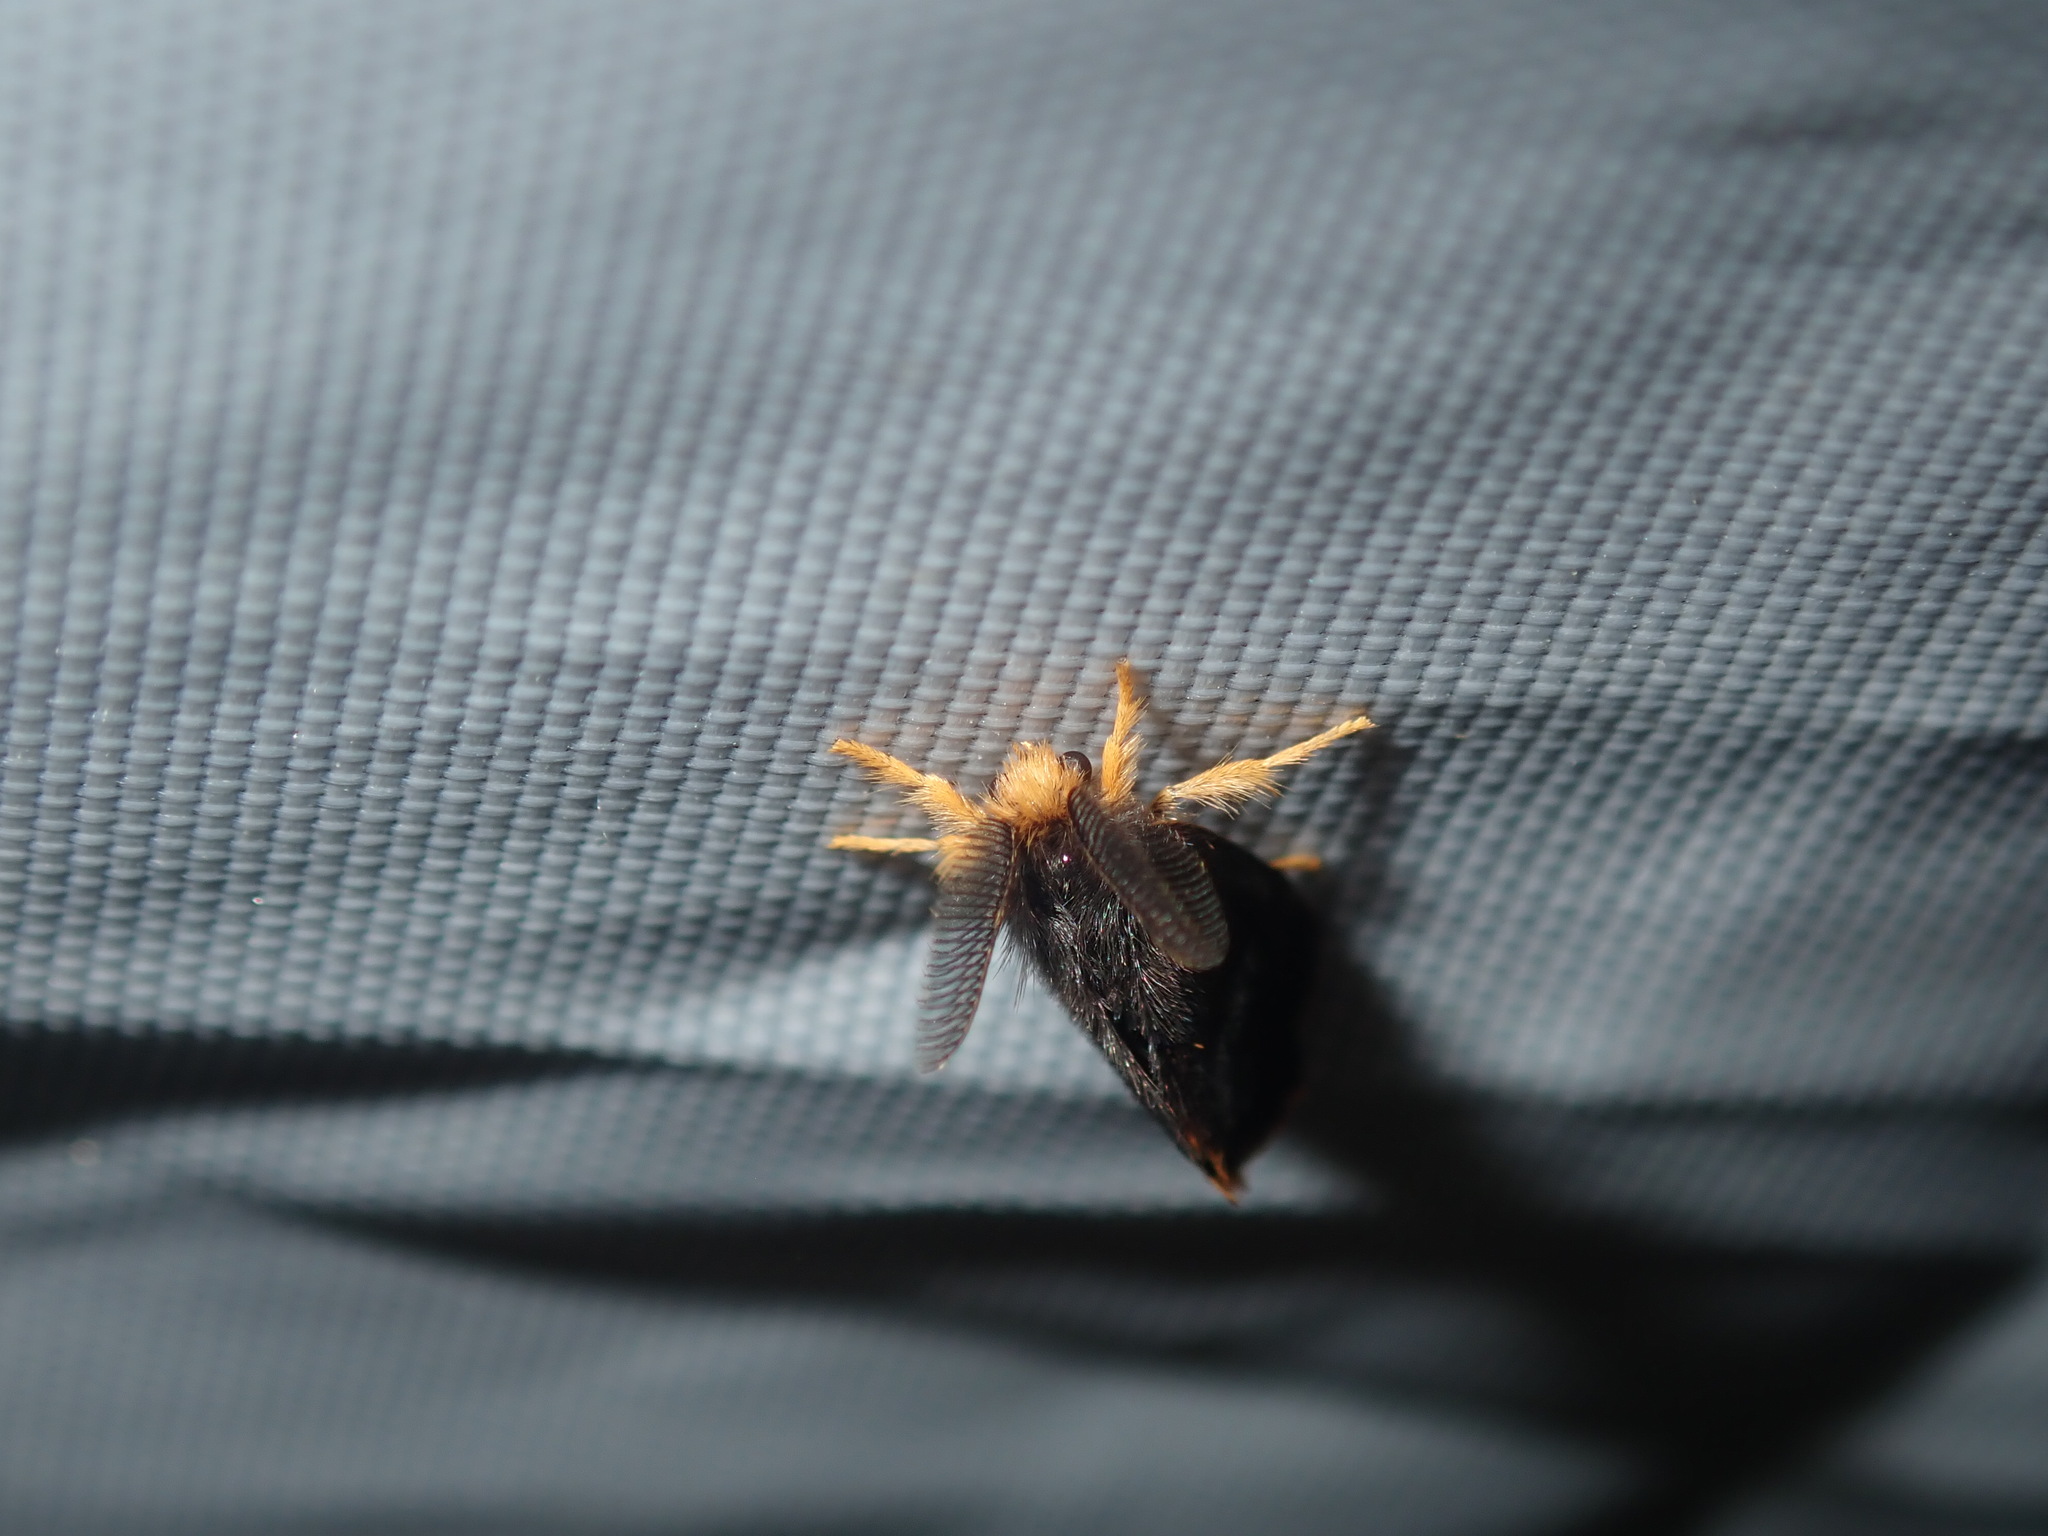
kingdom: Animalia
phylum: Arthropoda
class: Insecta
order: Lepidoptera
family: Erebidae
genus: Oligeria
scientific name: Oligeria hemicalla
